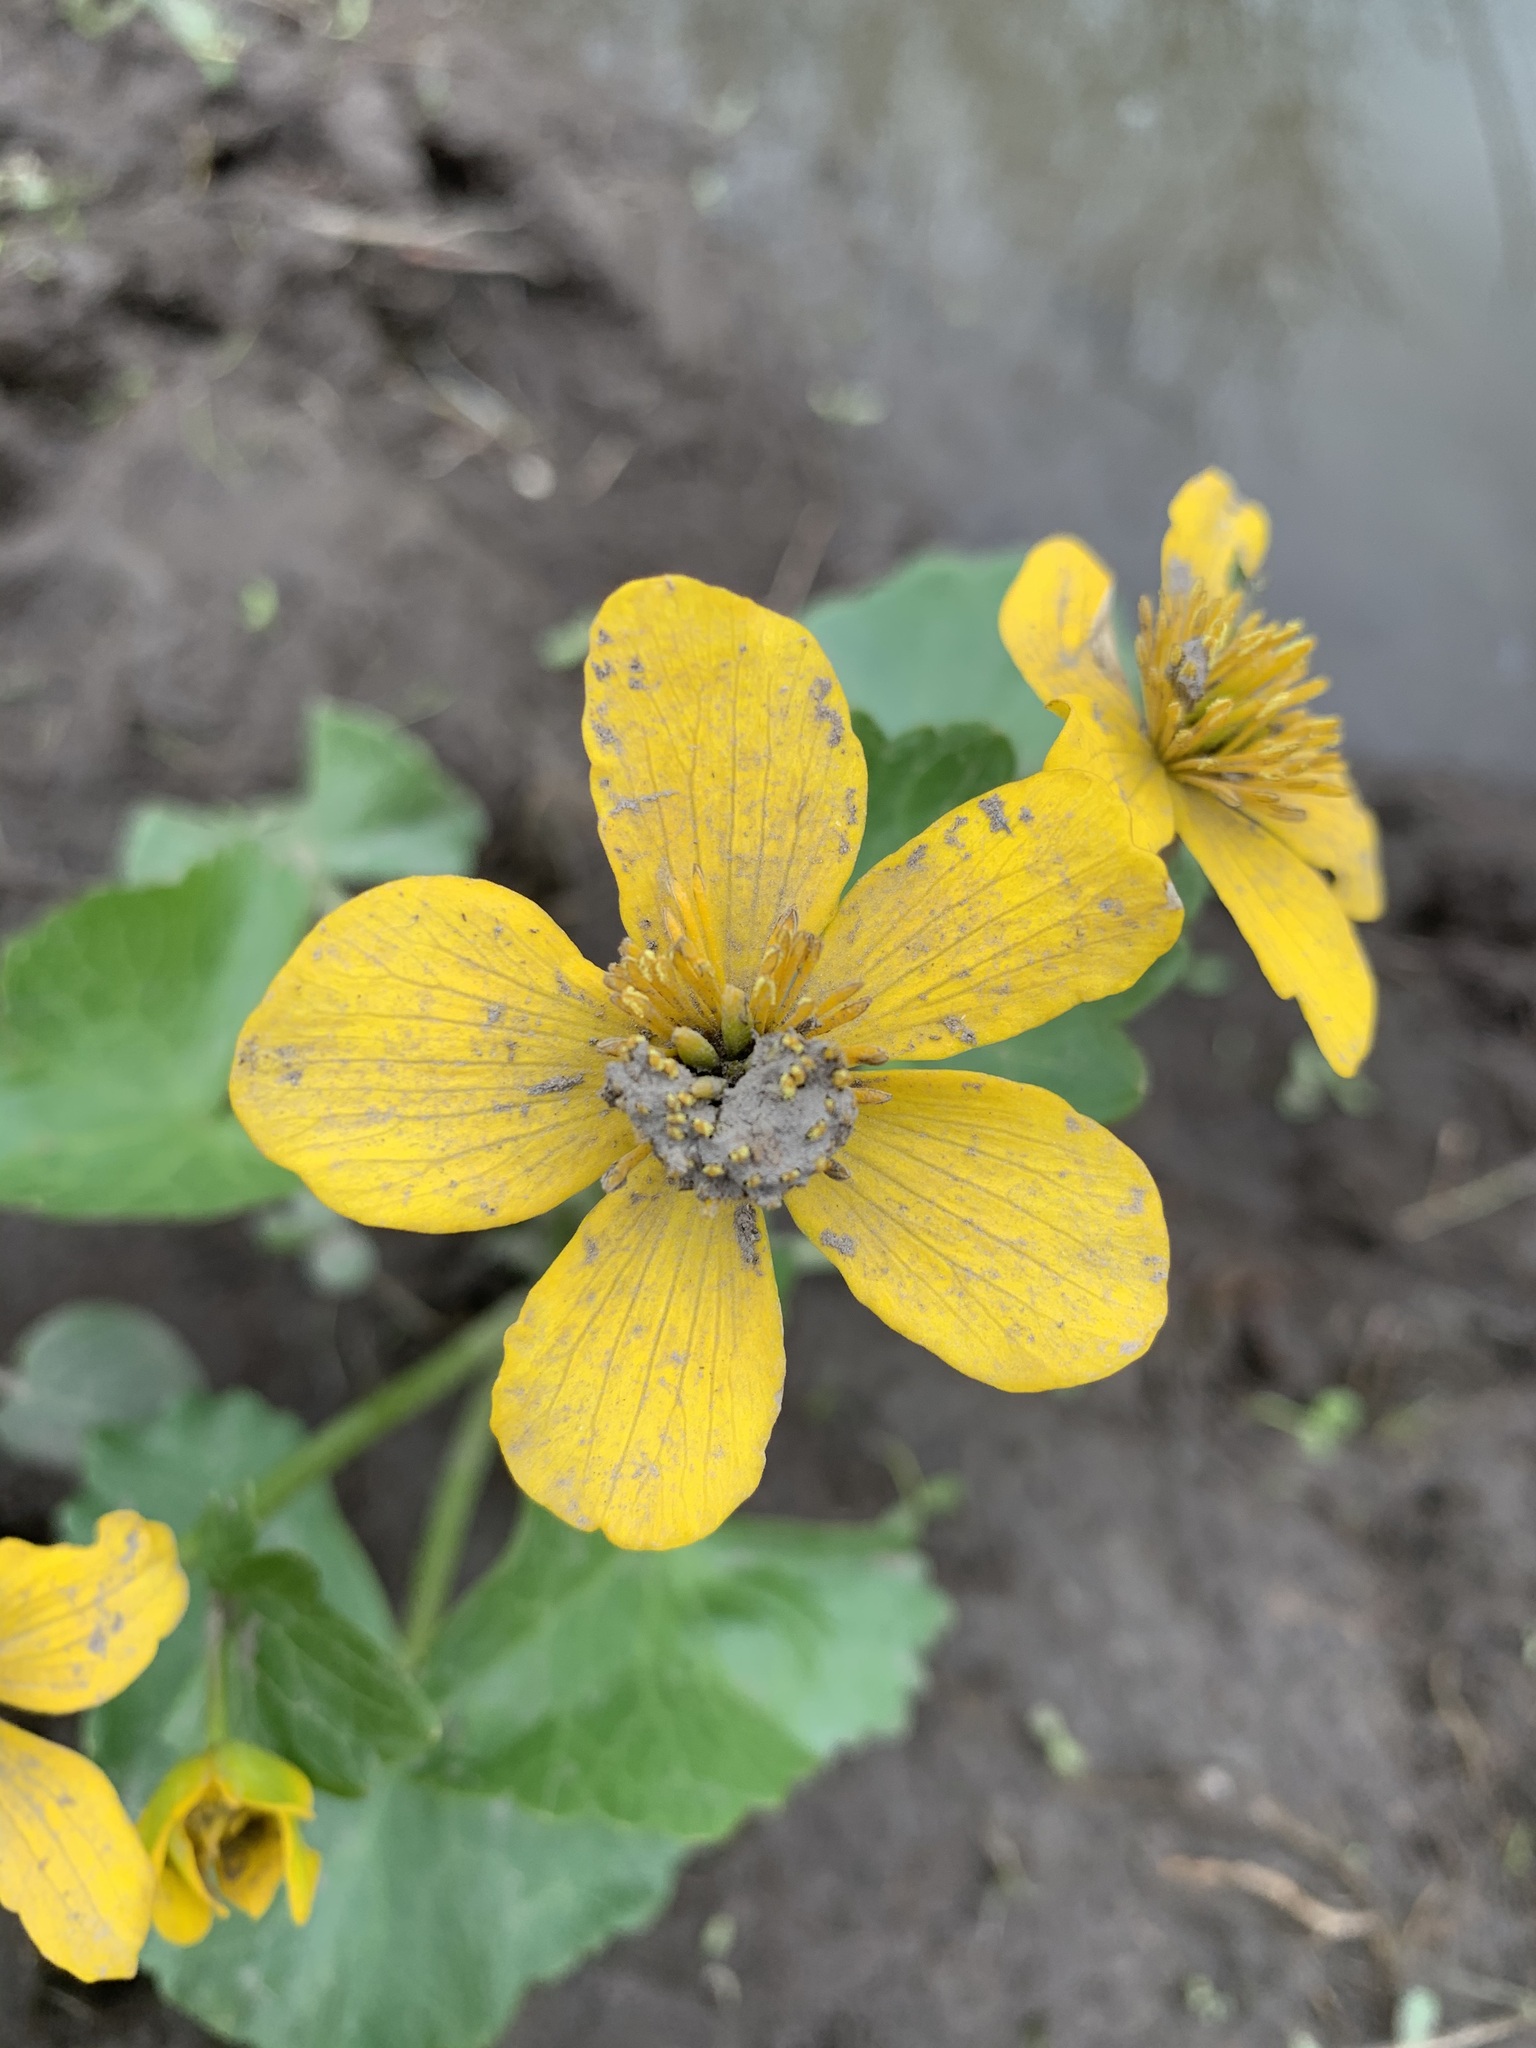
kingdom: Plantae
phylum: Tracheophyta
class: Magnoliopsida
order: Ranunculales
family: Ranunculaceae
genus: Caltha
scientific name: Caltha palustris
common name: Marsh marigold
